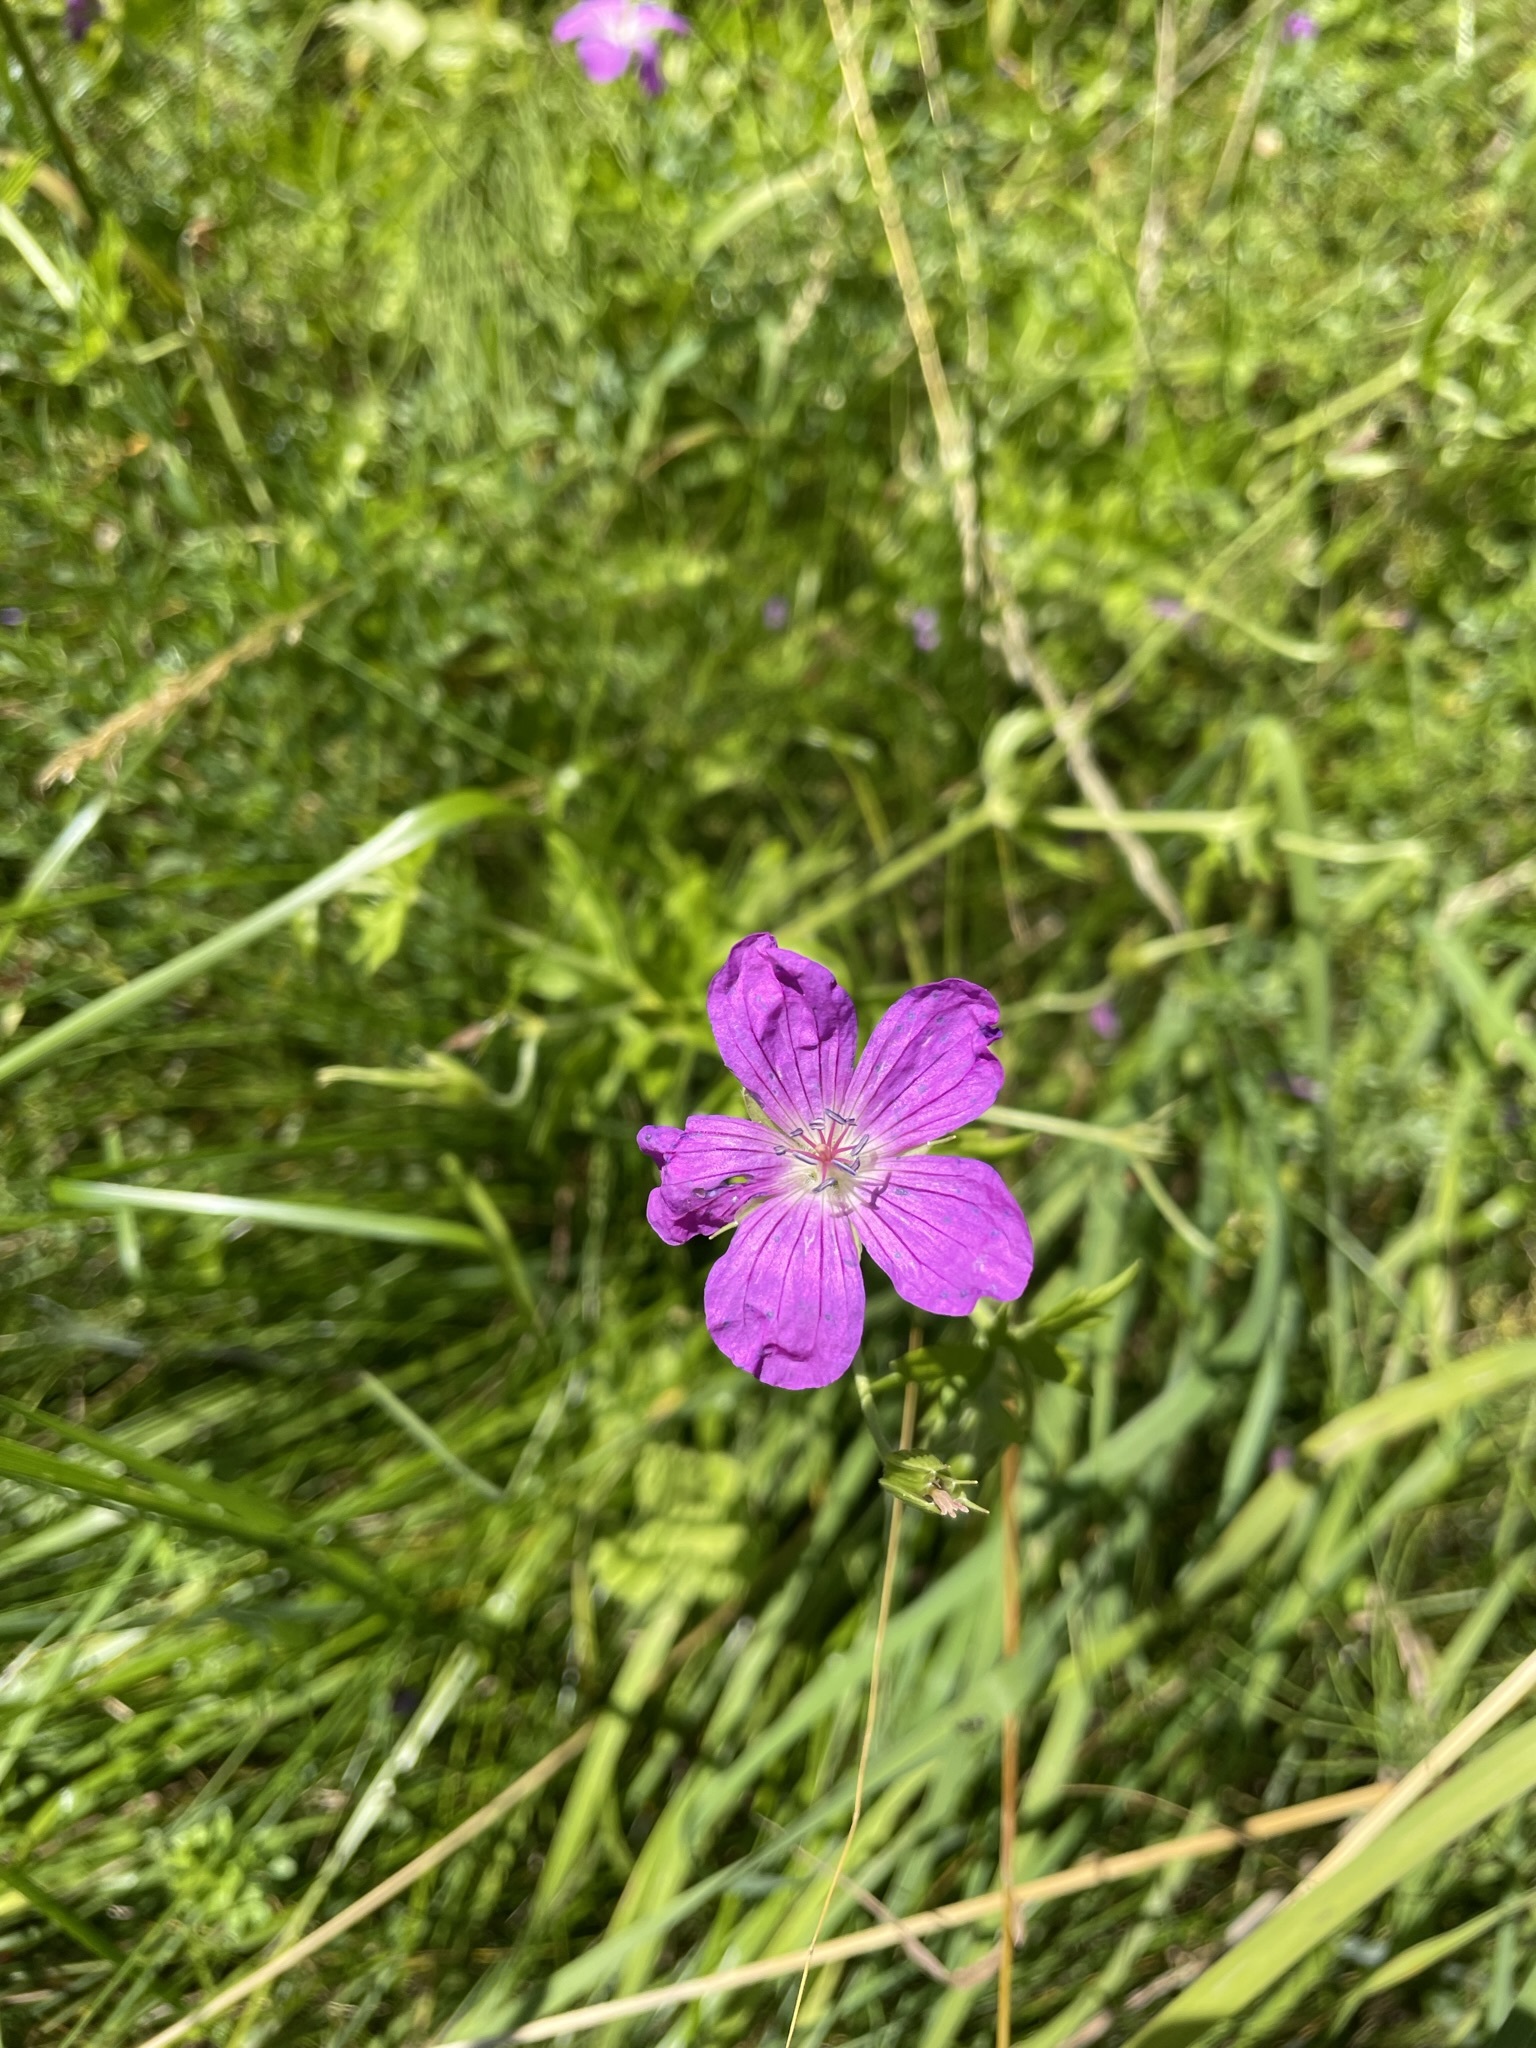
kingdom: Plantae
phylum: Tracheophyta
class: Magnoliopsida
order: Geraniales
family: Geraniaceae
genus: Geranium
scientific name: Geranium palustre
